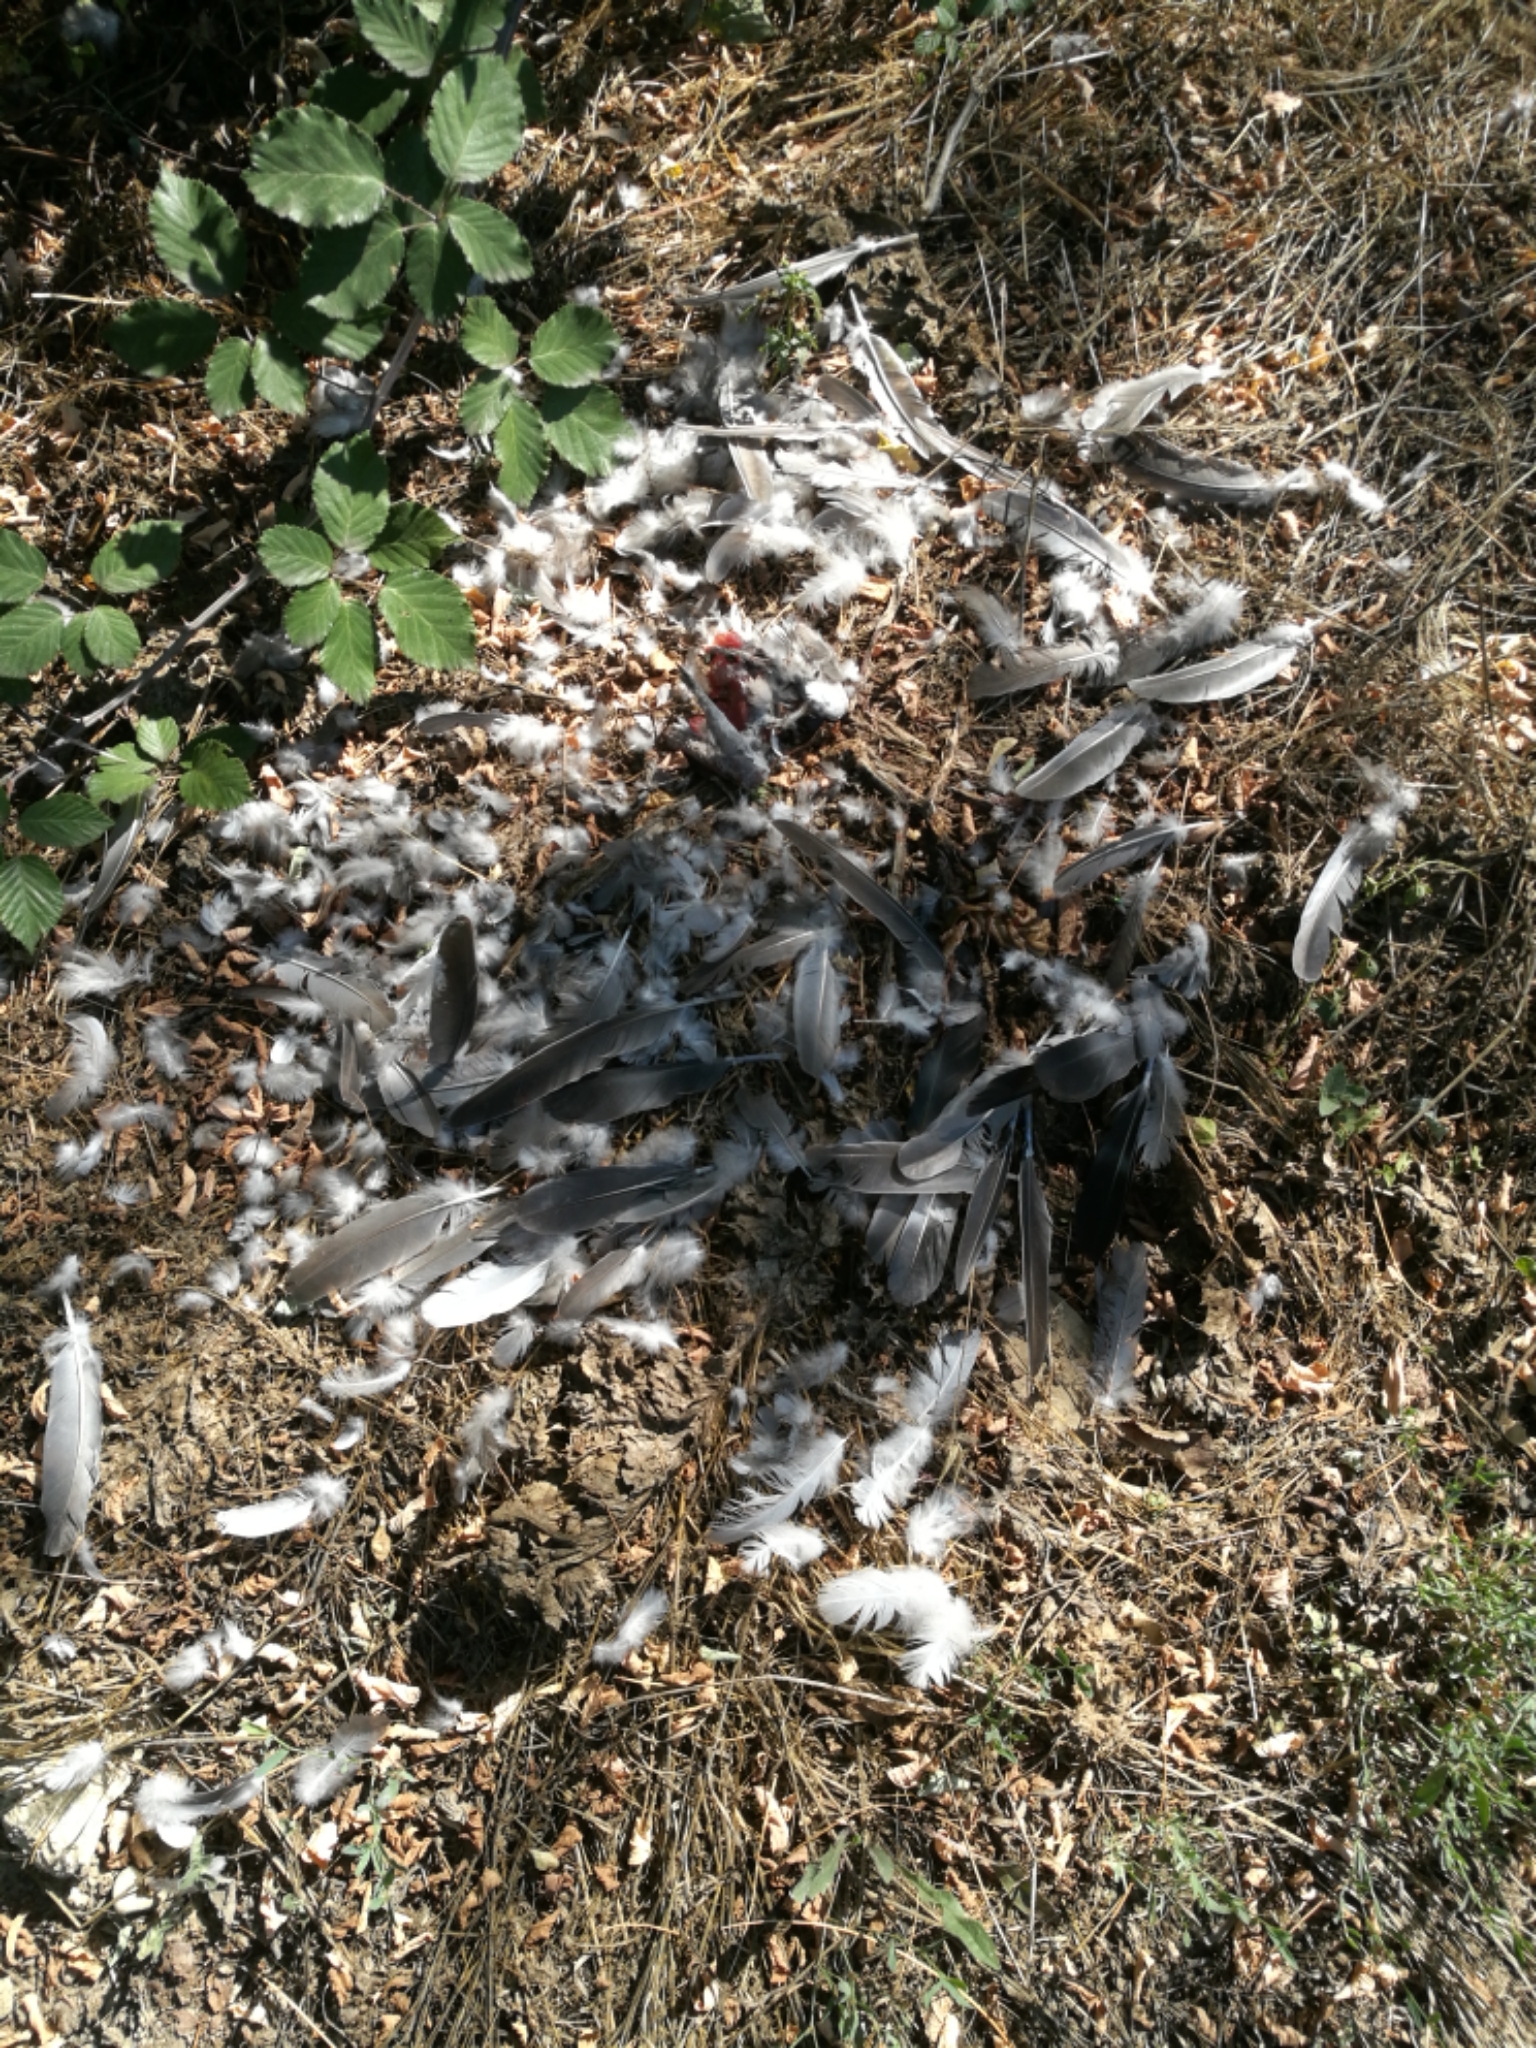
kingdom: Animalia
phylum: Chordata
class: Aves
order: Columbiformes
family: Columbidae
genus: Columba
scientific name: Columba palumbus
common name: Common wood pigeon
